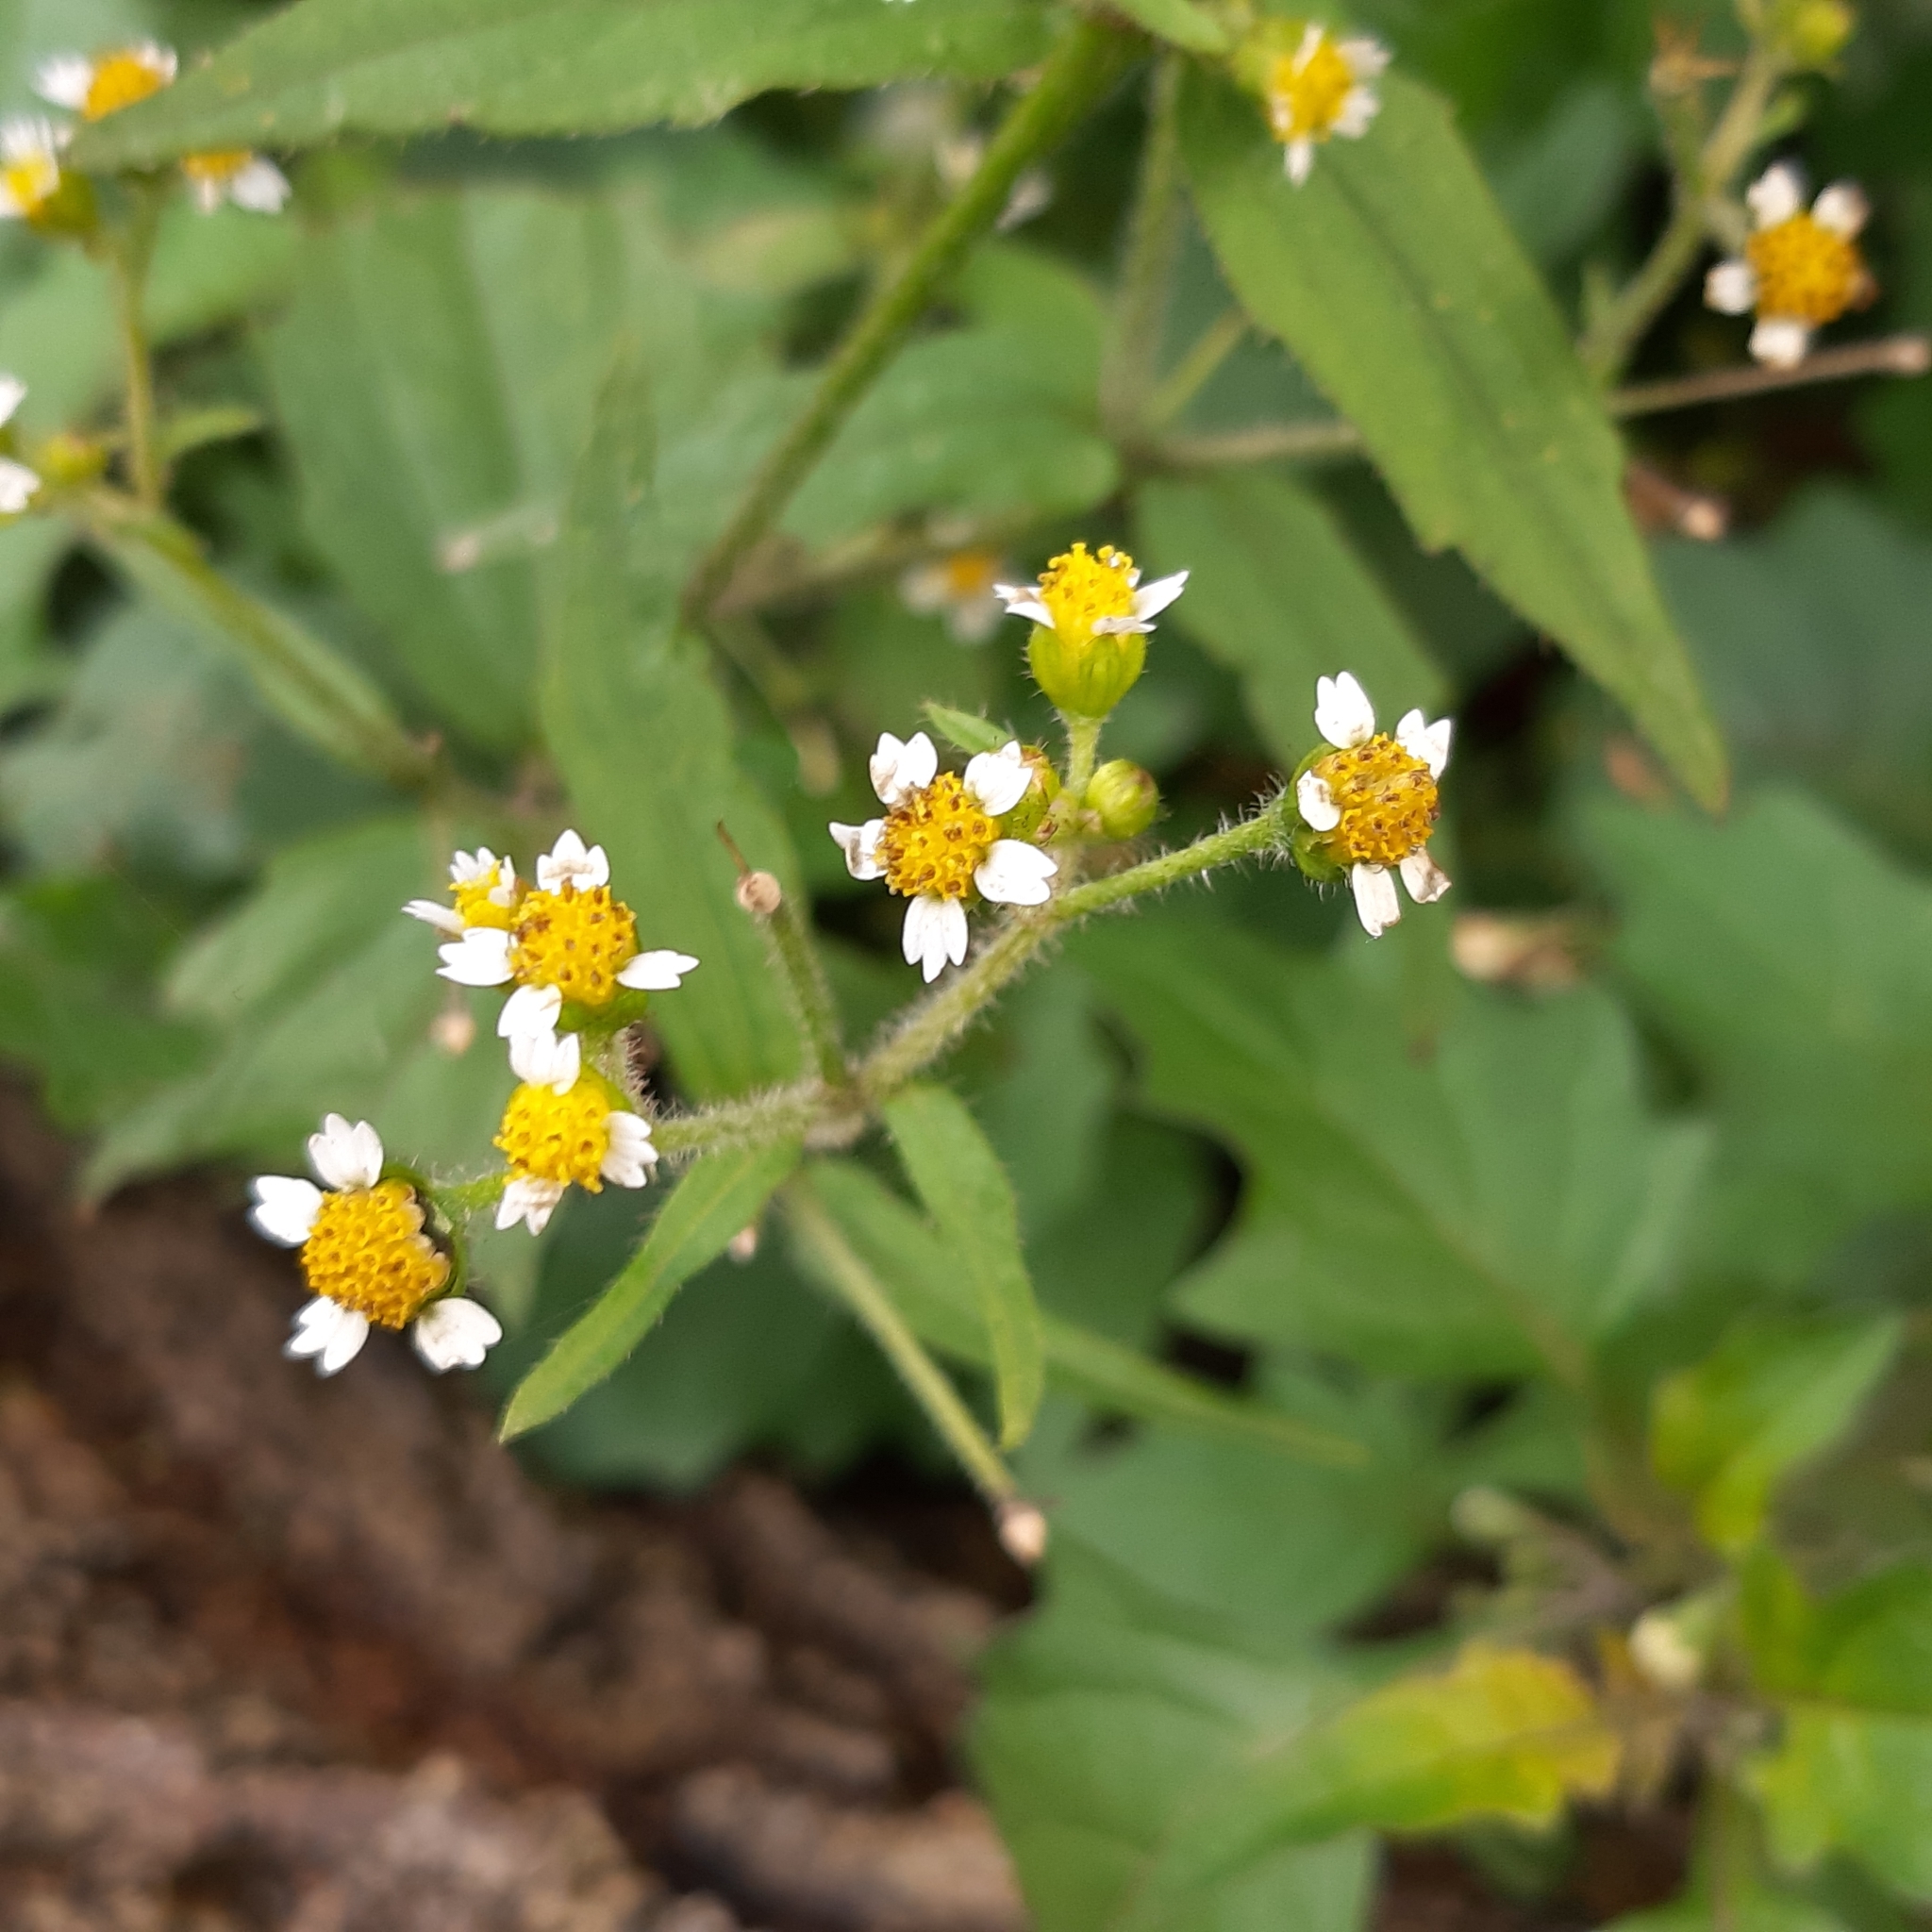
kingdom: Plantae
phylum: Tracheophyta
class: Magnoliopsida
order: Asterales
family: Asteraceae
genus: Galinsoga
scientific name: Galinsoga quadriradiata
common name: Shaggy soldier
